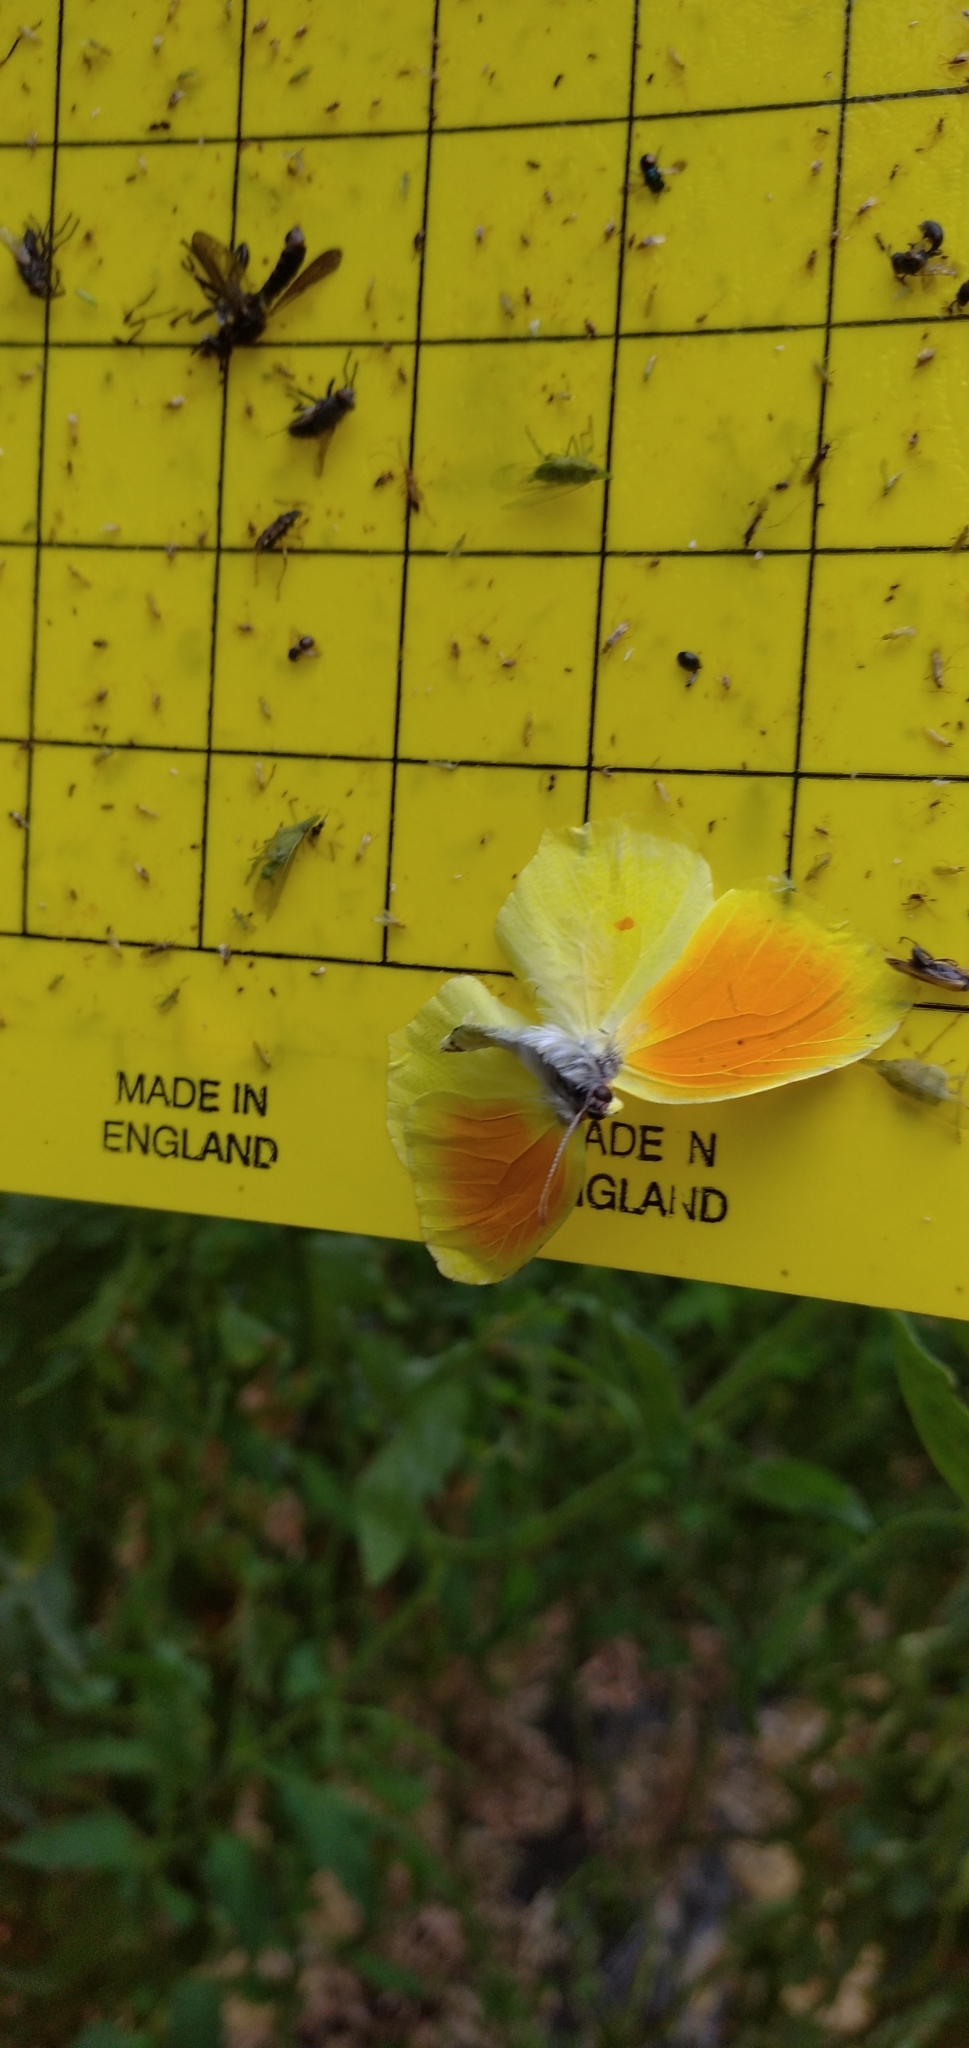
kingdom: Animalia
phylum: Arthropoda
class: Insecta
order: Lepidoptera
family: Pieridae
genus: Gonepteryx
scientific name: Gonepteryx cleopatra
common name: Cleopatra
